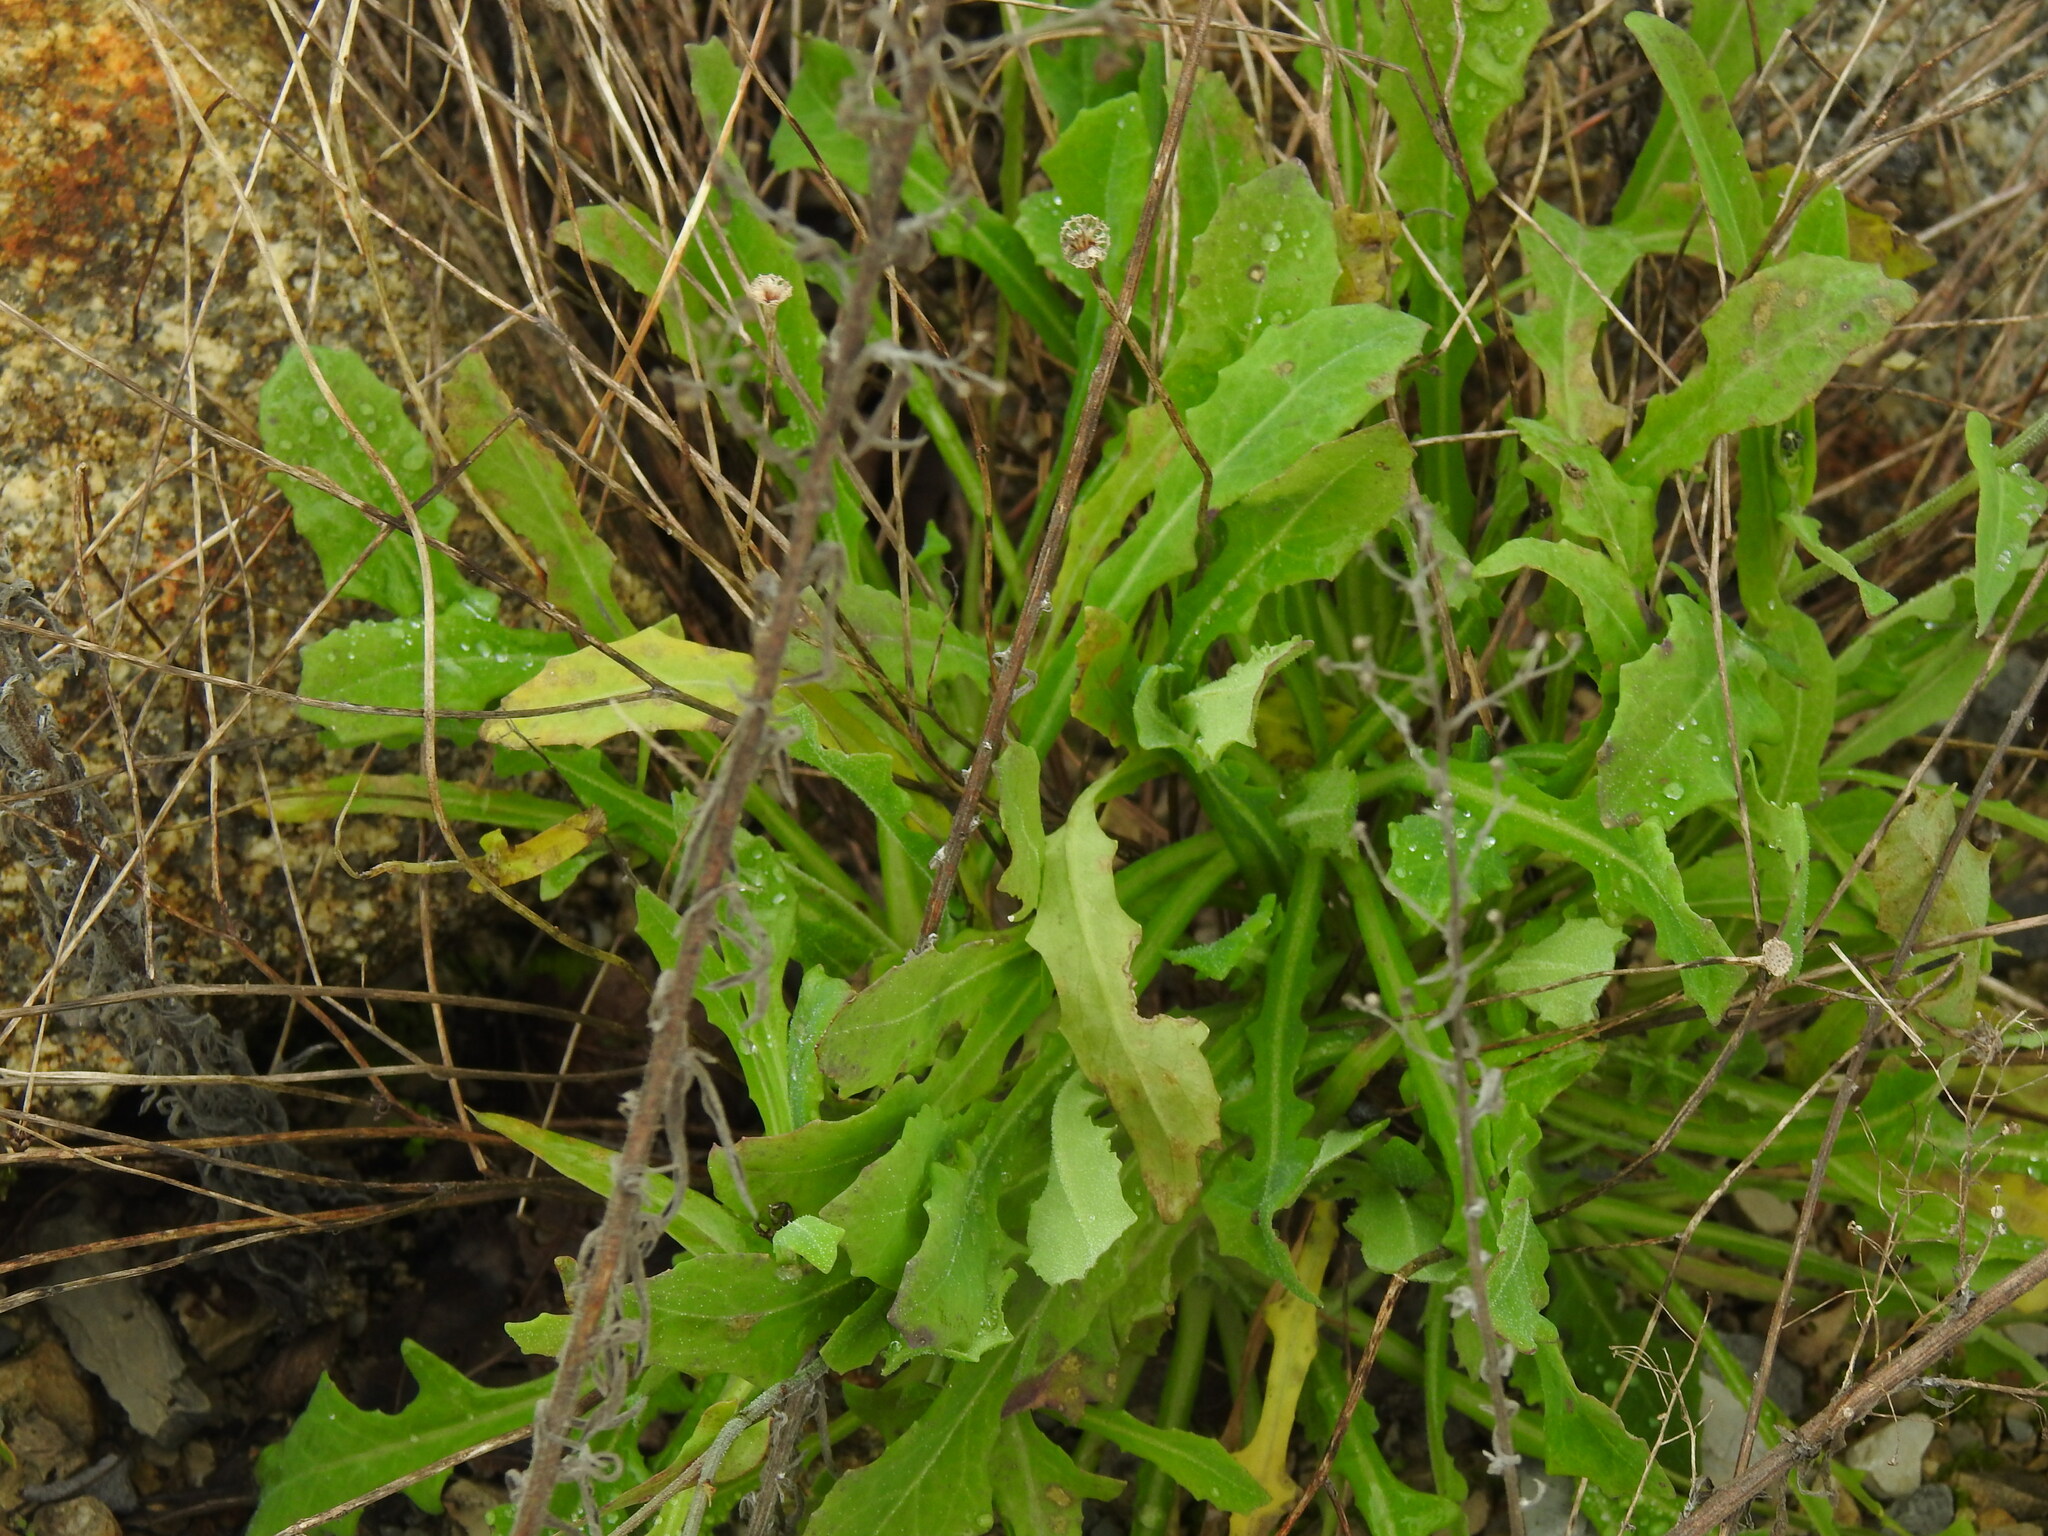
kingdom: Plantae
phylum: Tracheophyta
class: Magnoliopsida
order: Asterales
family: Asteraceae
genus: Reichardia
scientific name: Reichardia picroides
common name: Common brighteyes
